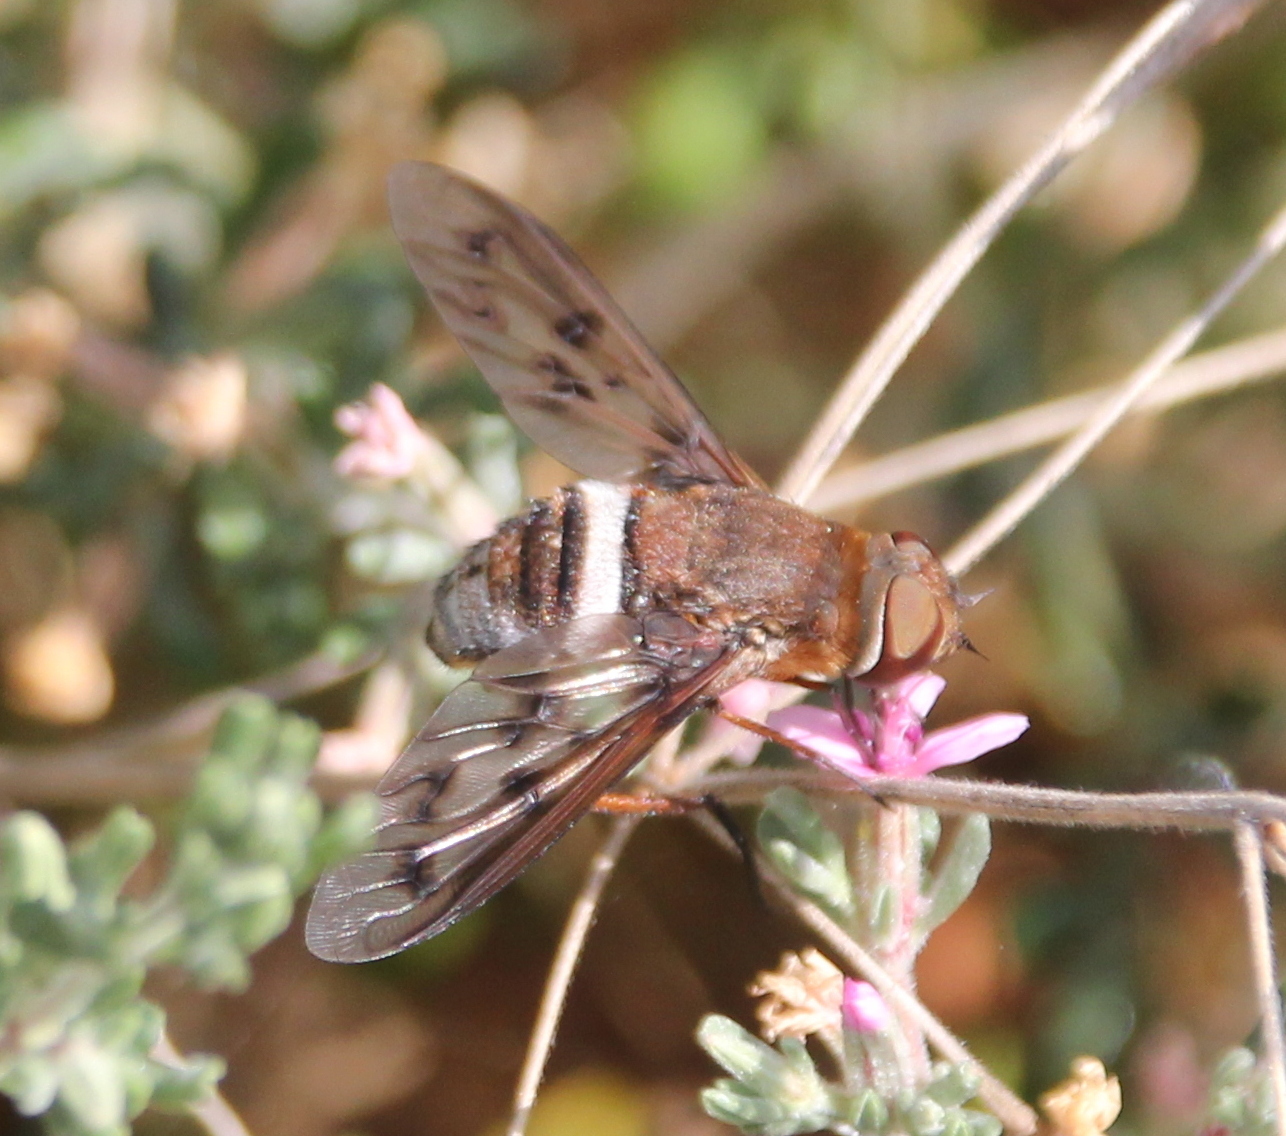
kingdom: Animalia
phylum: Arthropoda
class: Insecta
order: Diptera
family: Bombyliidae
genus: Nyia
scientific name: Nyia gazophylax
